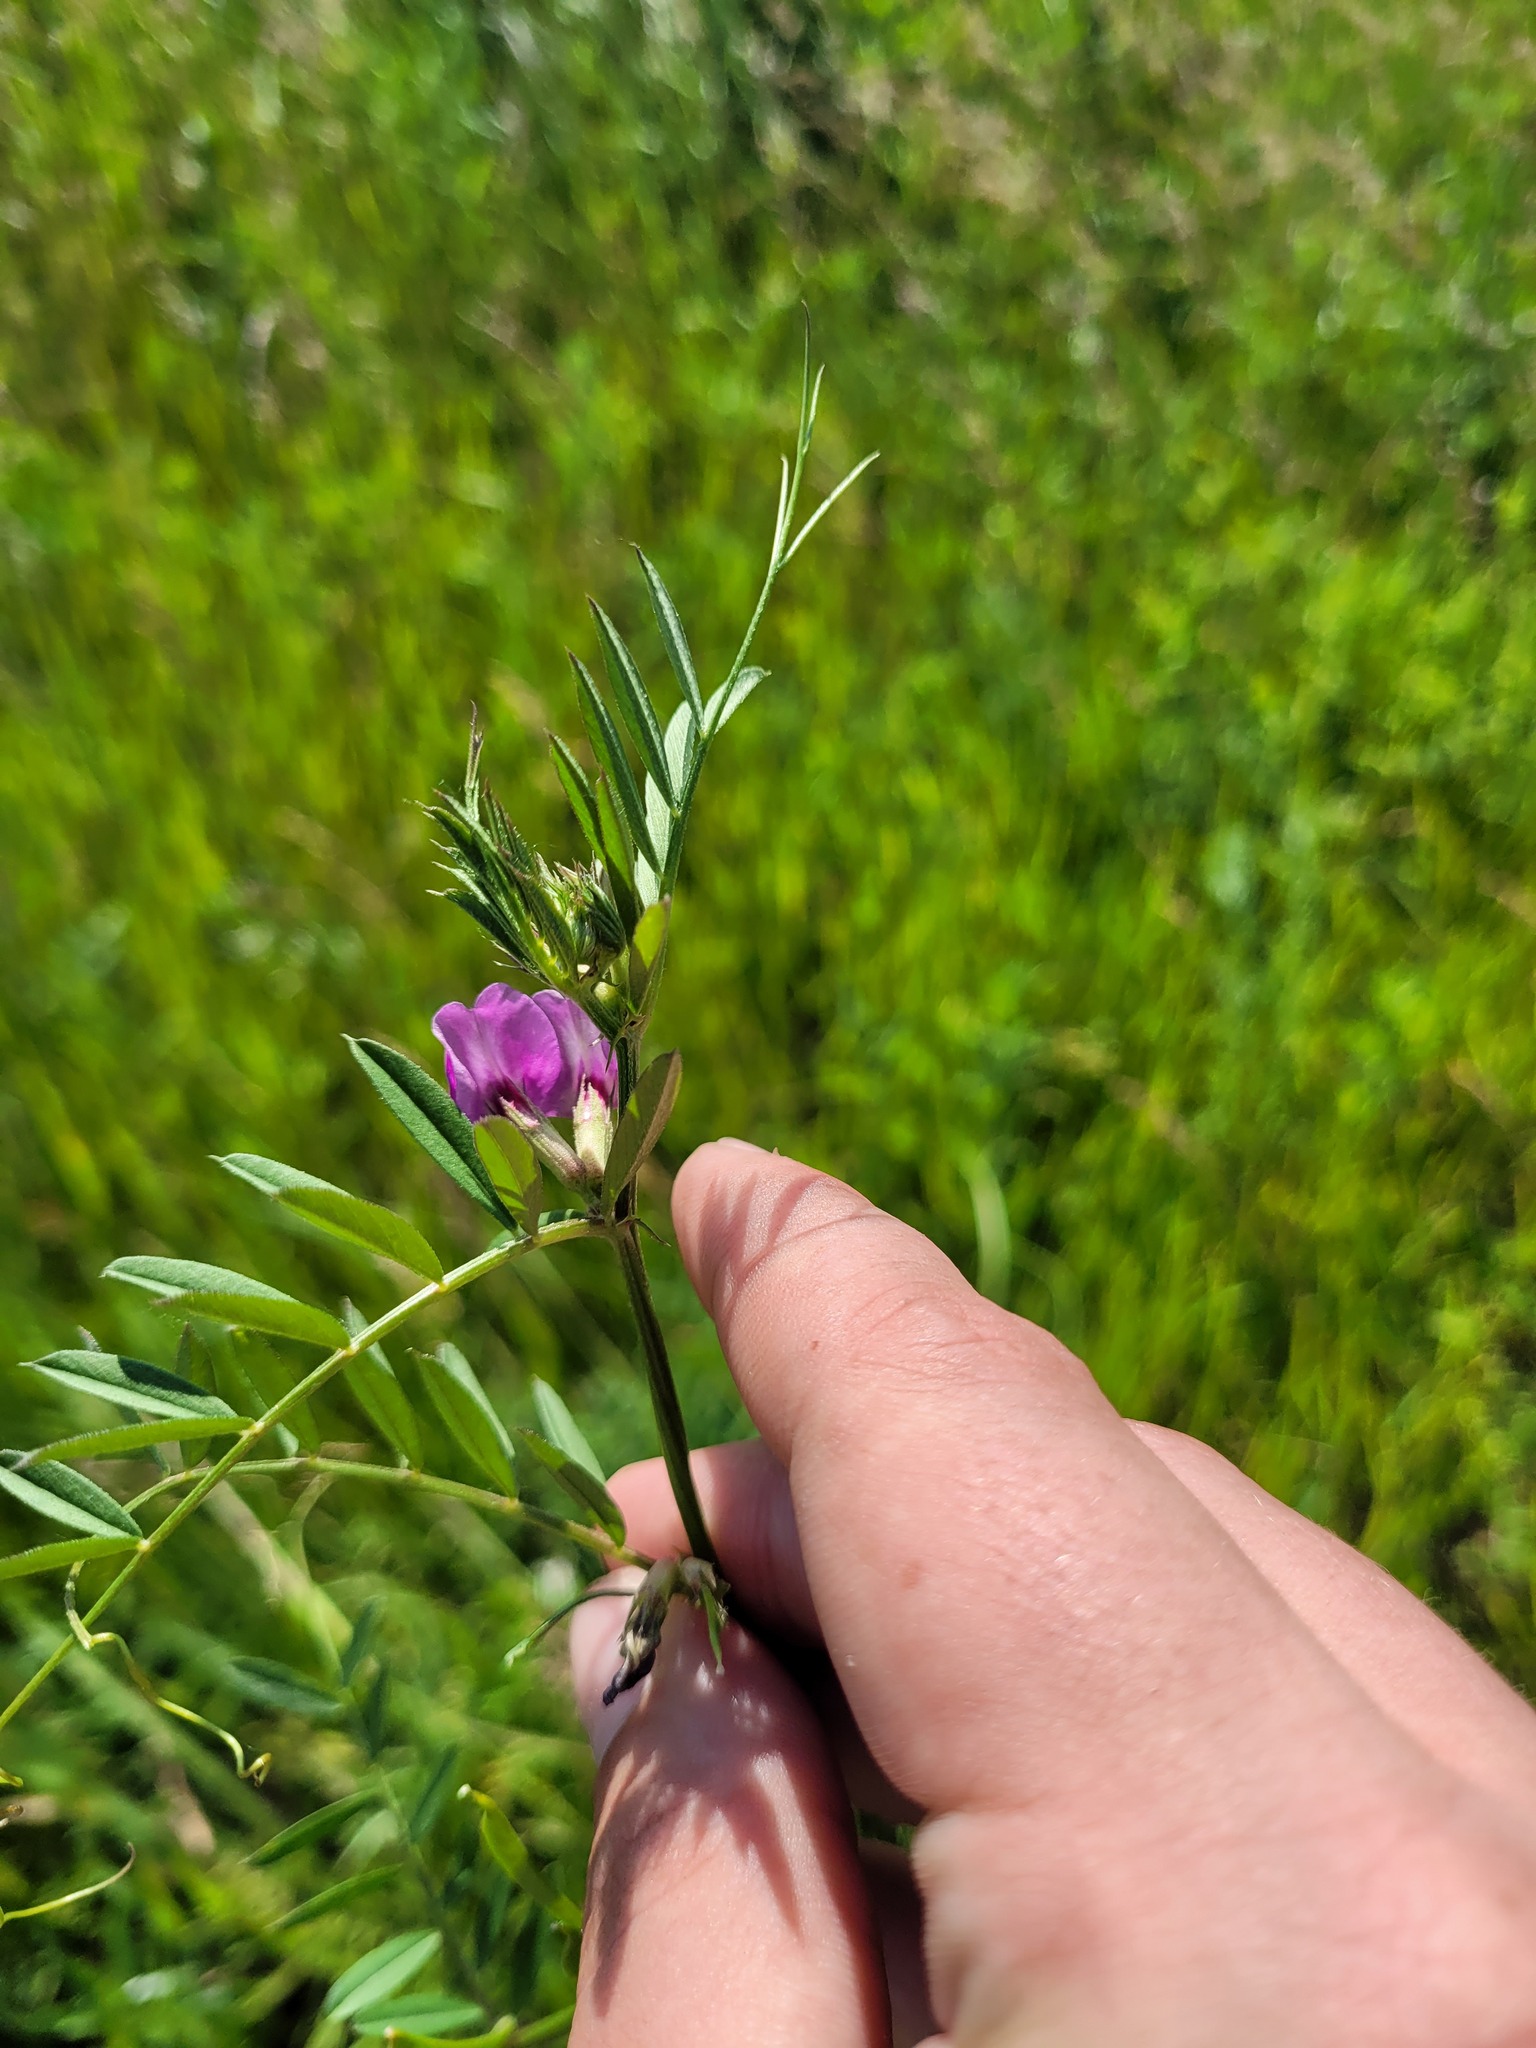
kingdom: Plantae
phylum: Tracheophyta
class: Magnoliopsida
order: Fabales
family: Fabaceae
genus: Vicia
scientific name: Vicia sativa
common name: Garden vetch
